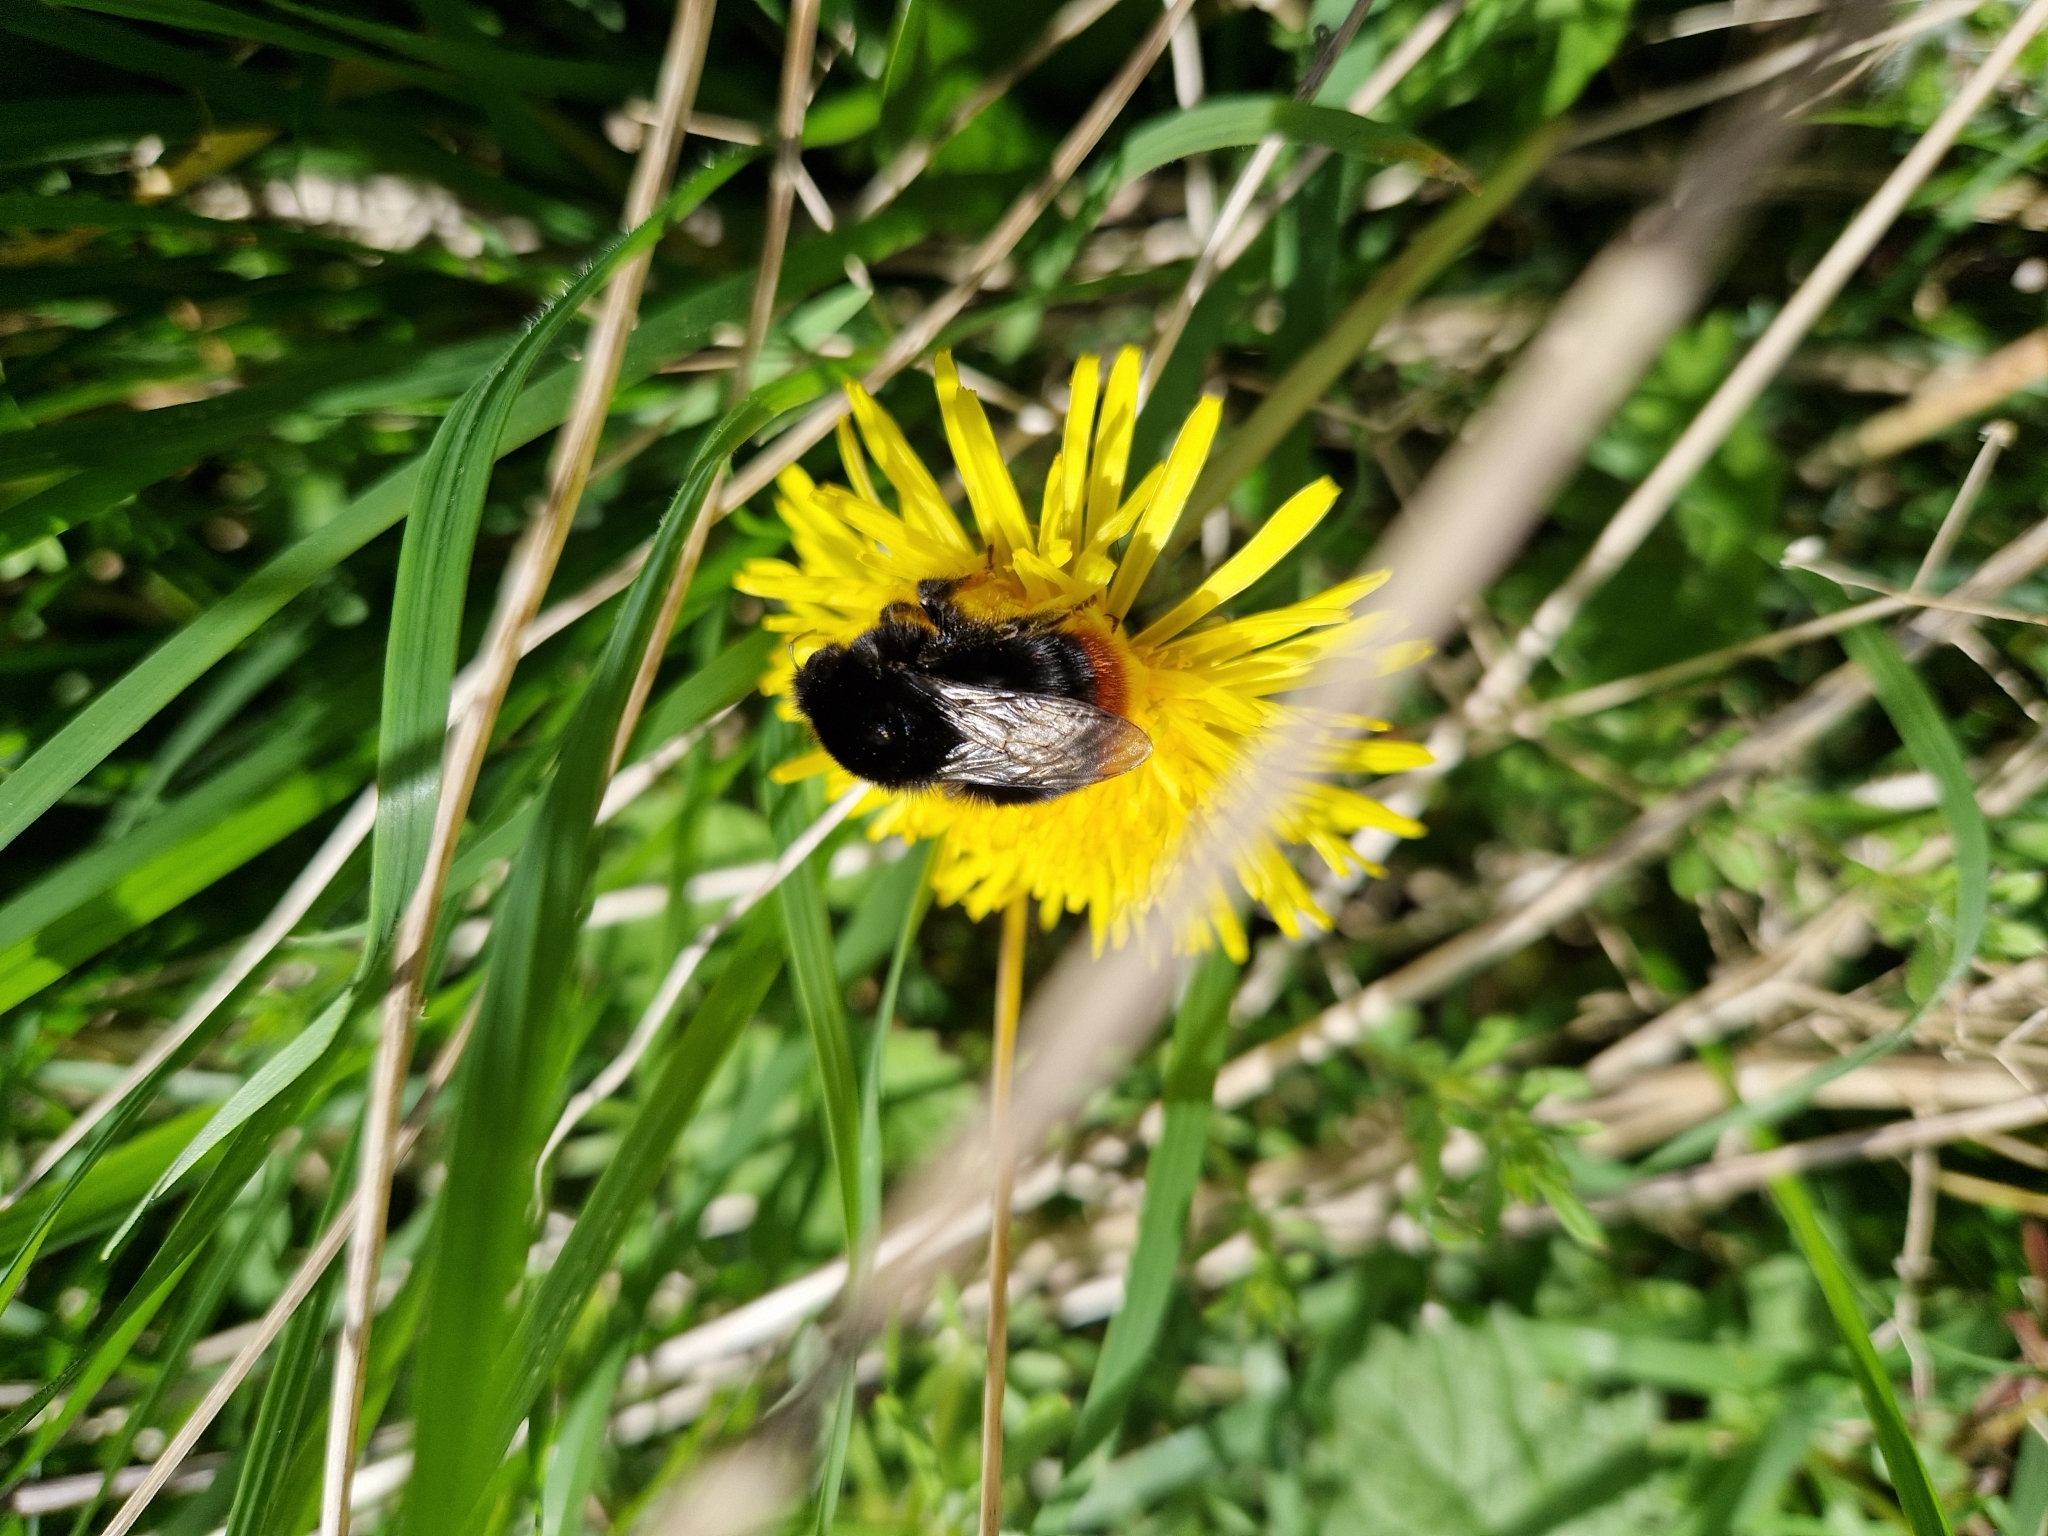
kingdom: Animalia
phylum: Arthropoda
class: Insecta
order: Hymenoptera
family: Apidae
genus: Bombus
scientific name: Bombus lapidarius
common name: Large red-tailed humble-bee
